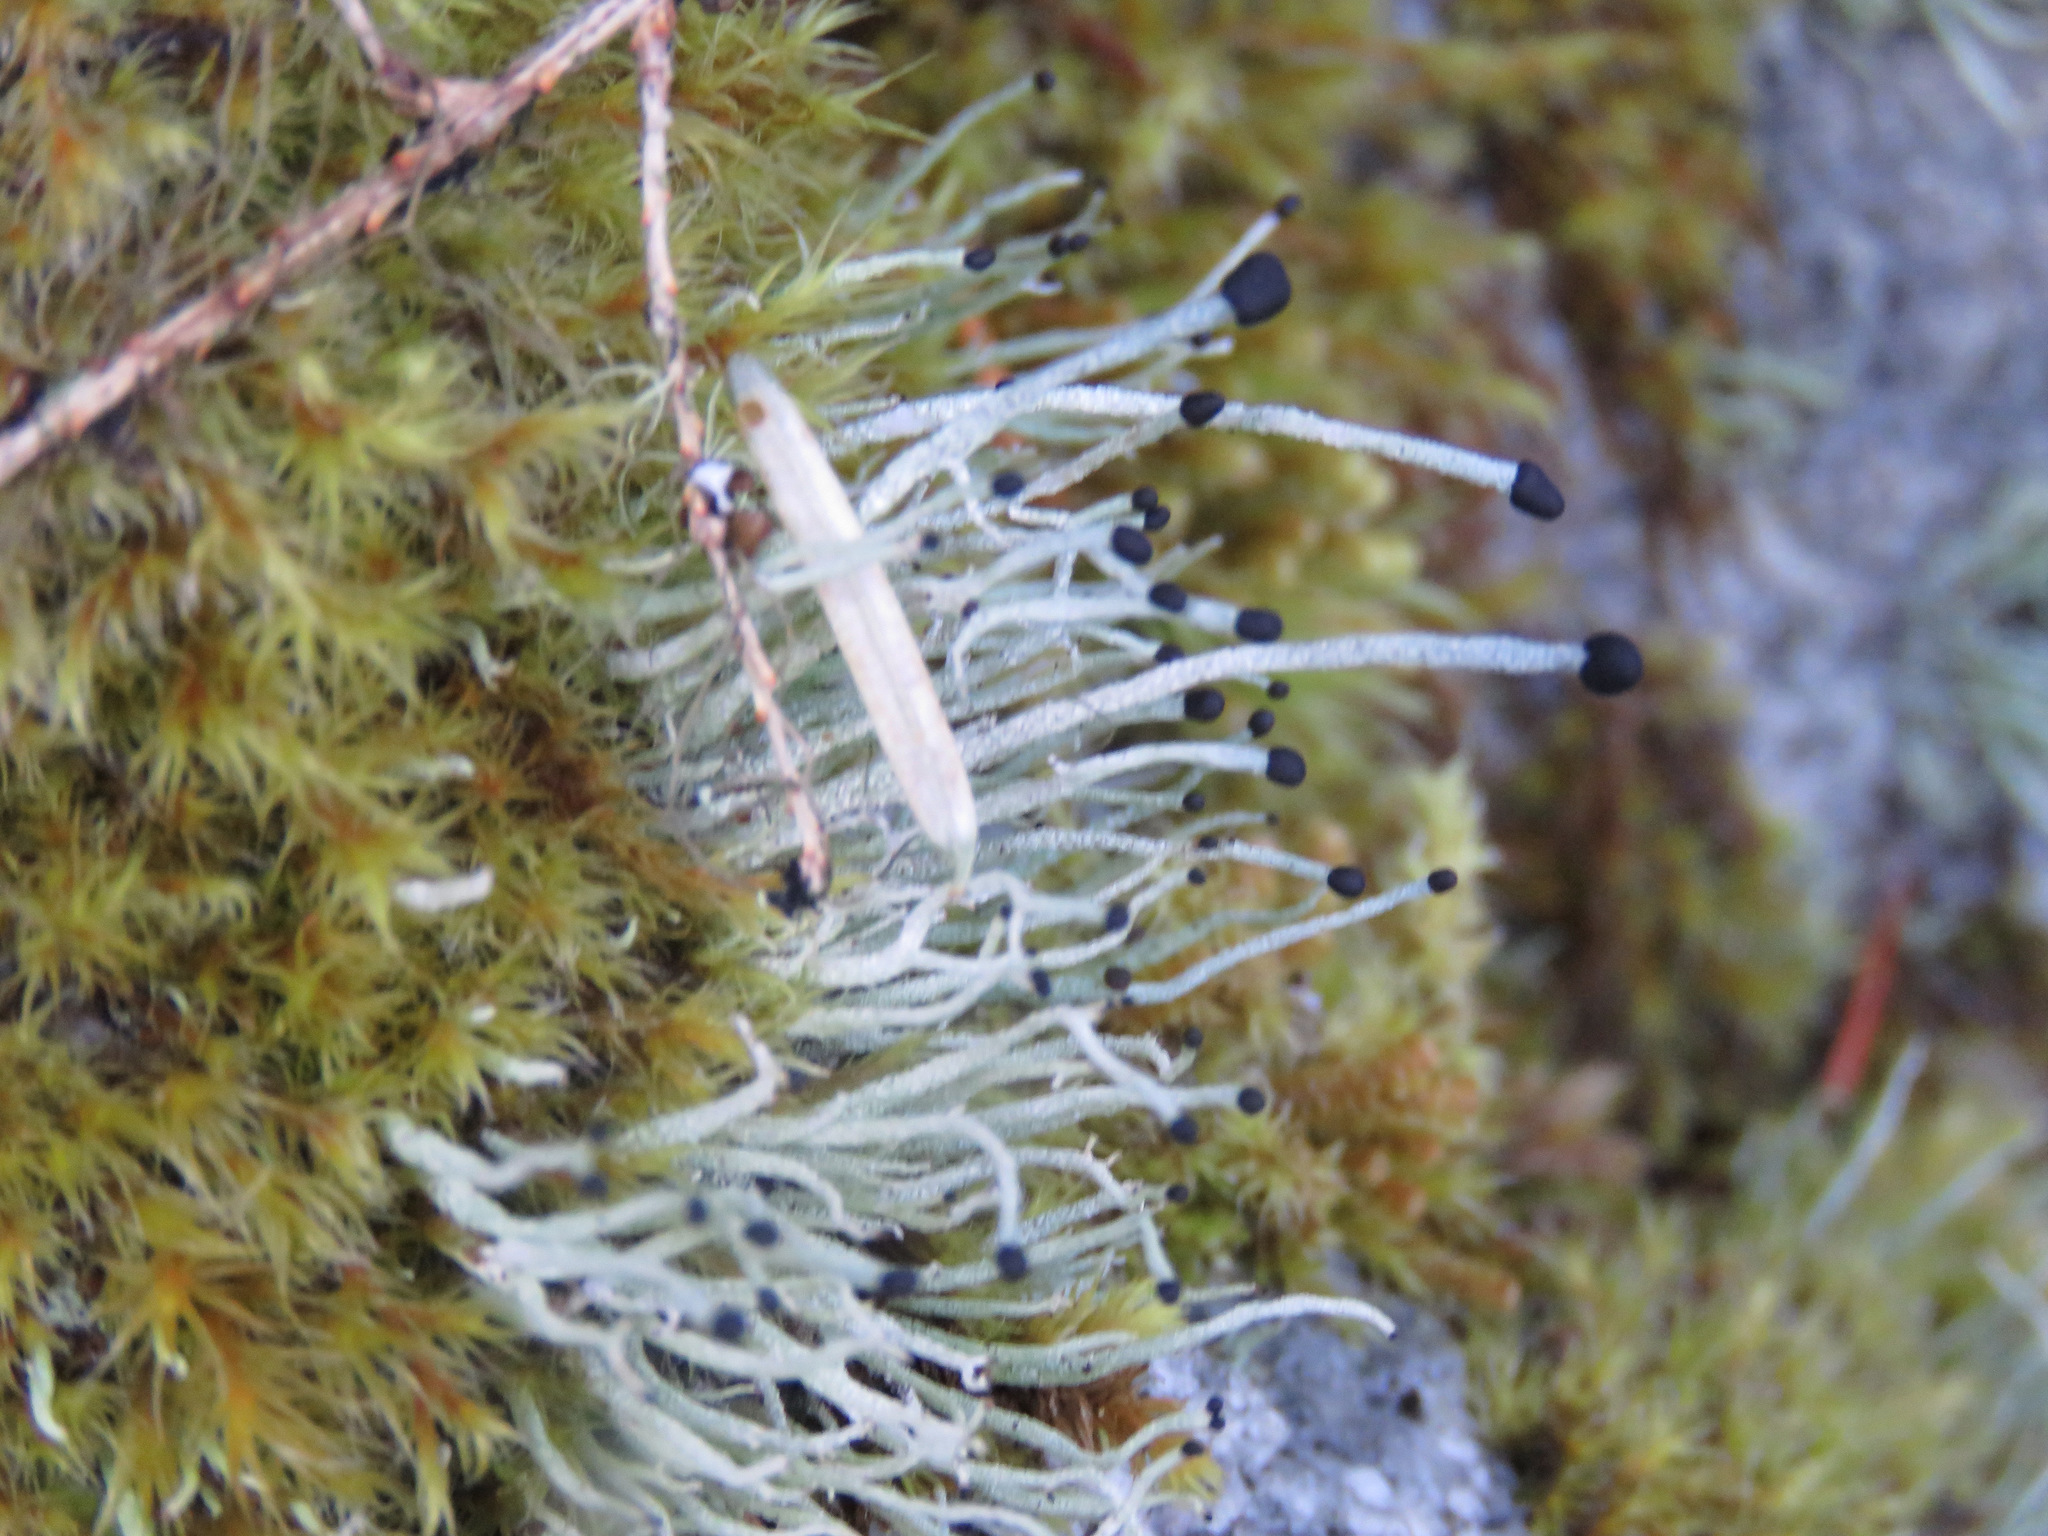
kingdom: Fungi
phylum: Ascomycota
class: Lecanoromycetes
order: Lecanorales
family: Cladoniaceae
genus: Pilophorus
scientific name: Pilophorus acicularis
